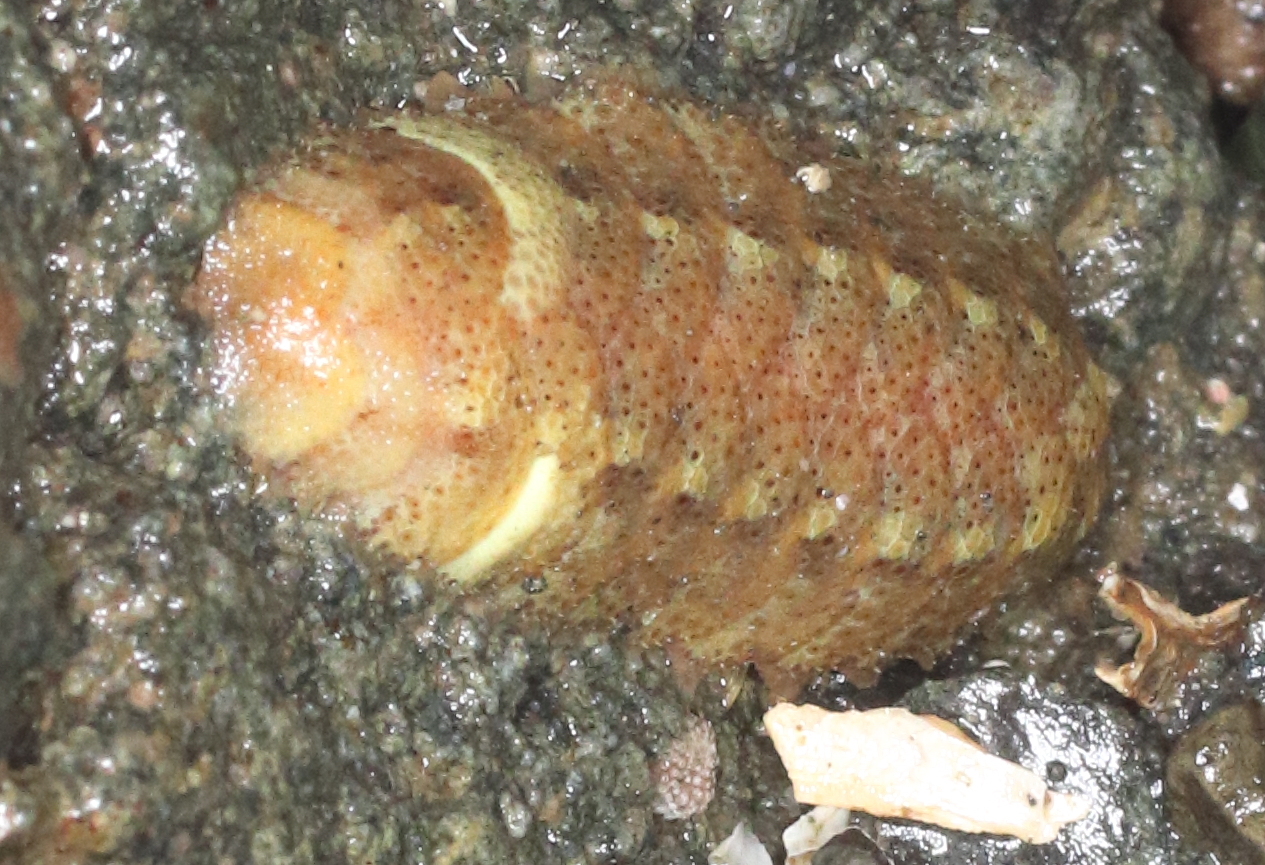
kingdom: Animalia
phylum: Annelida
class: Polychaeta
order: Phyllodocida
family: Polynoidae
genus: Gaudichaudius
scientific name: Gaudichaudius iphionelloides
